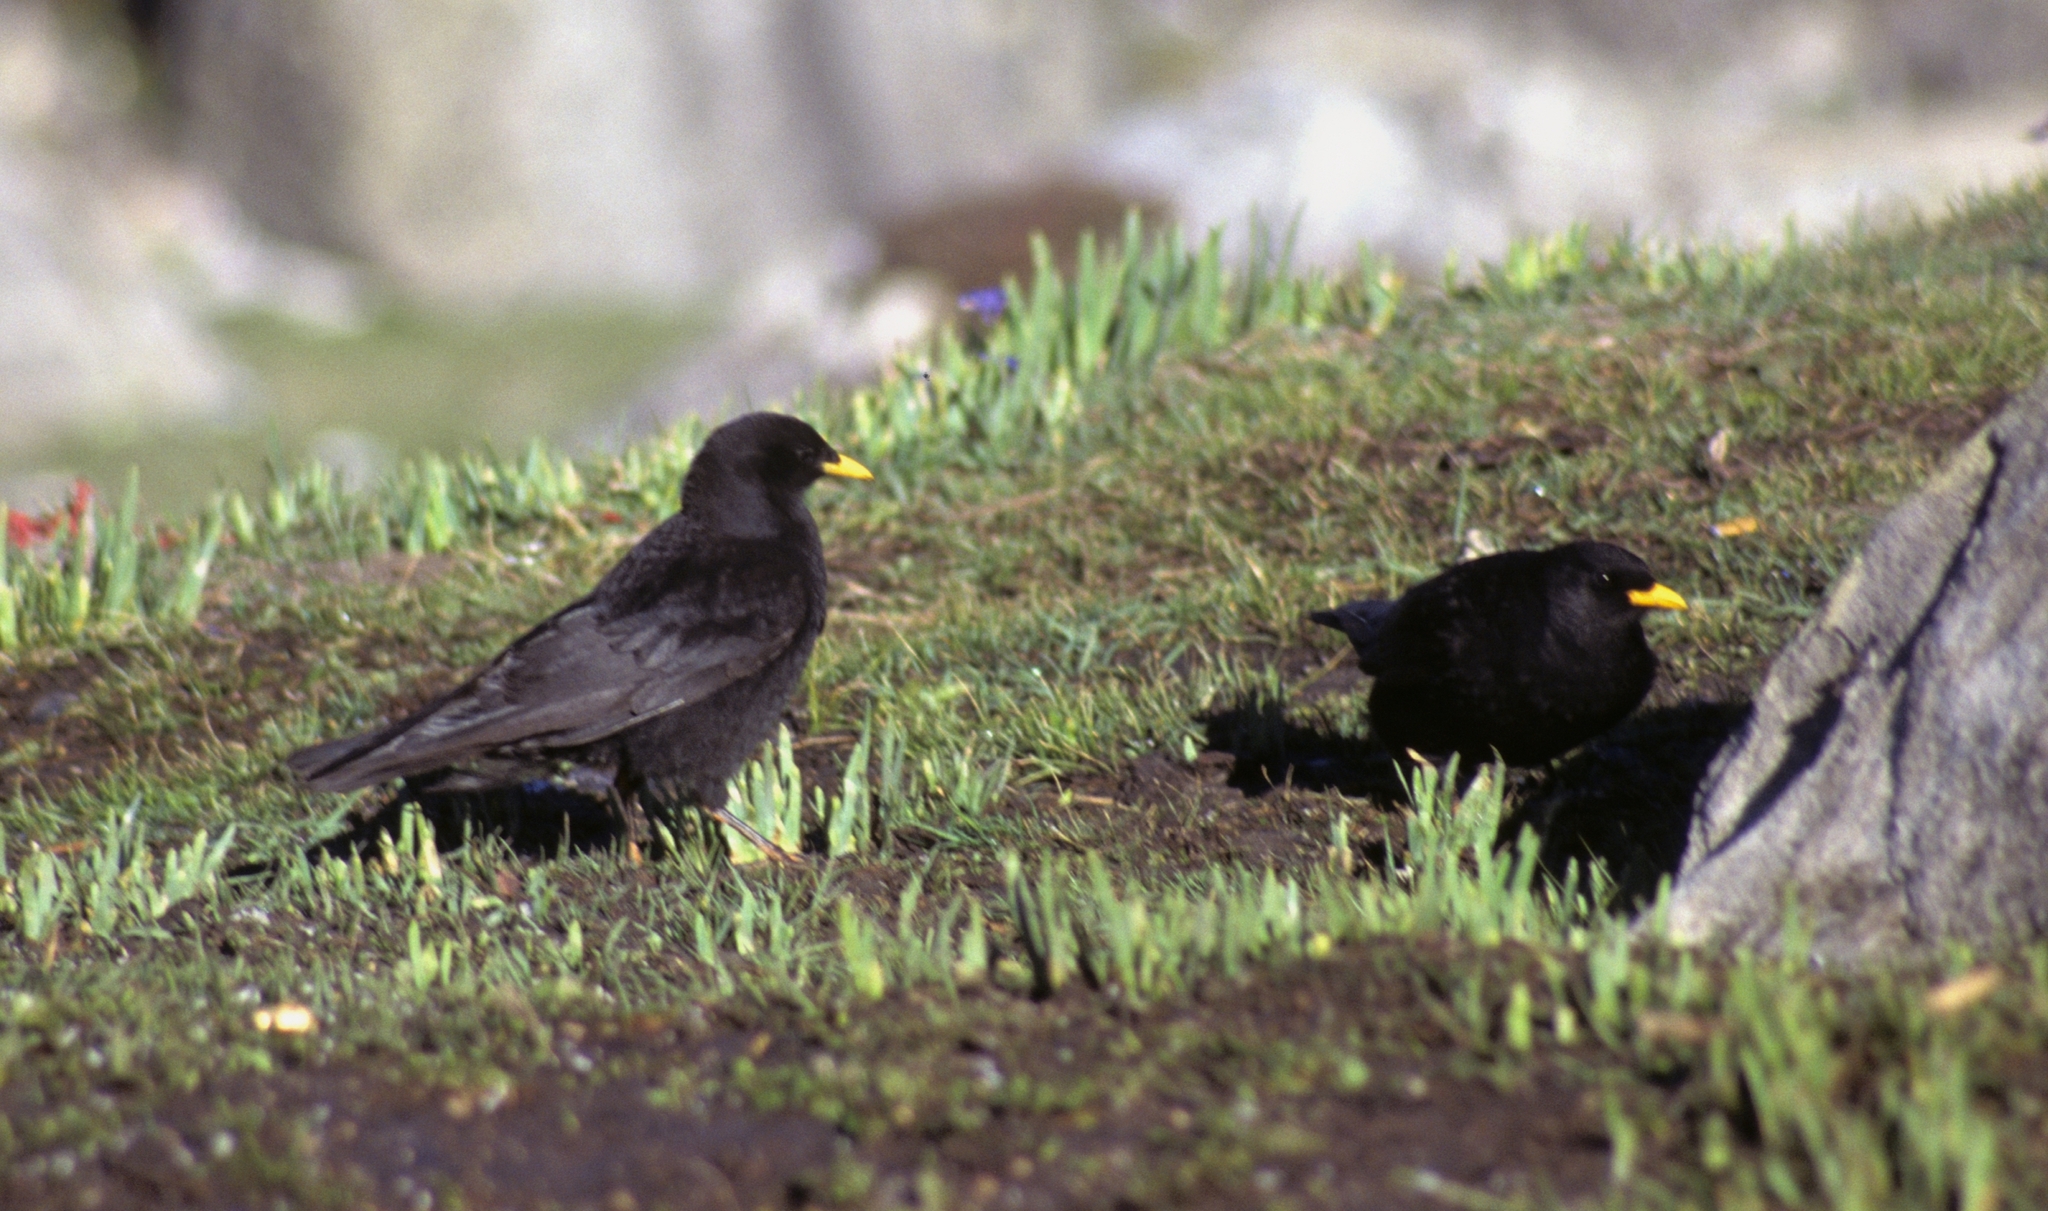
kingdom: Animalia
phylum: Chordata
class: Aves
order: Passeriformes
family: Corvidae
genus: Pyrrhocorax
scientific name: Pyrrhocorax graculus
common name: Alpine chough
